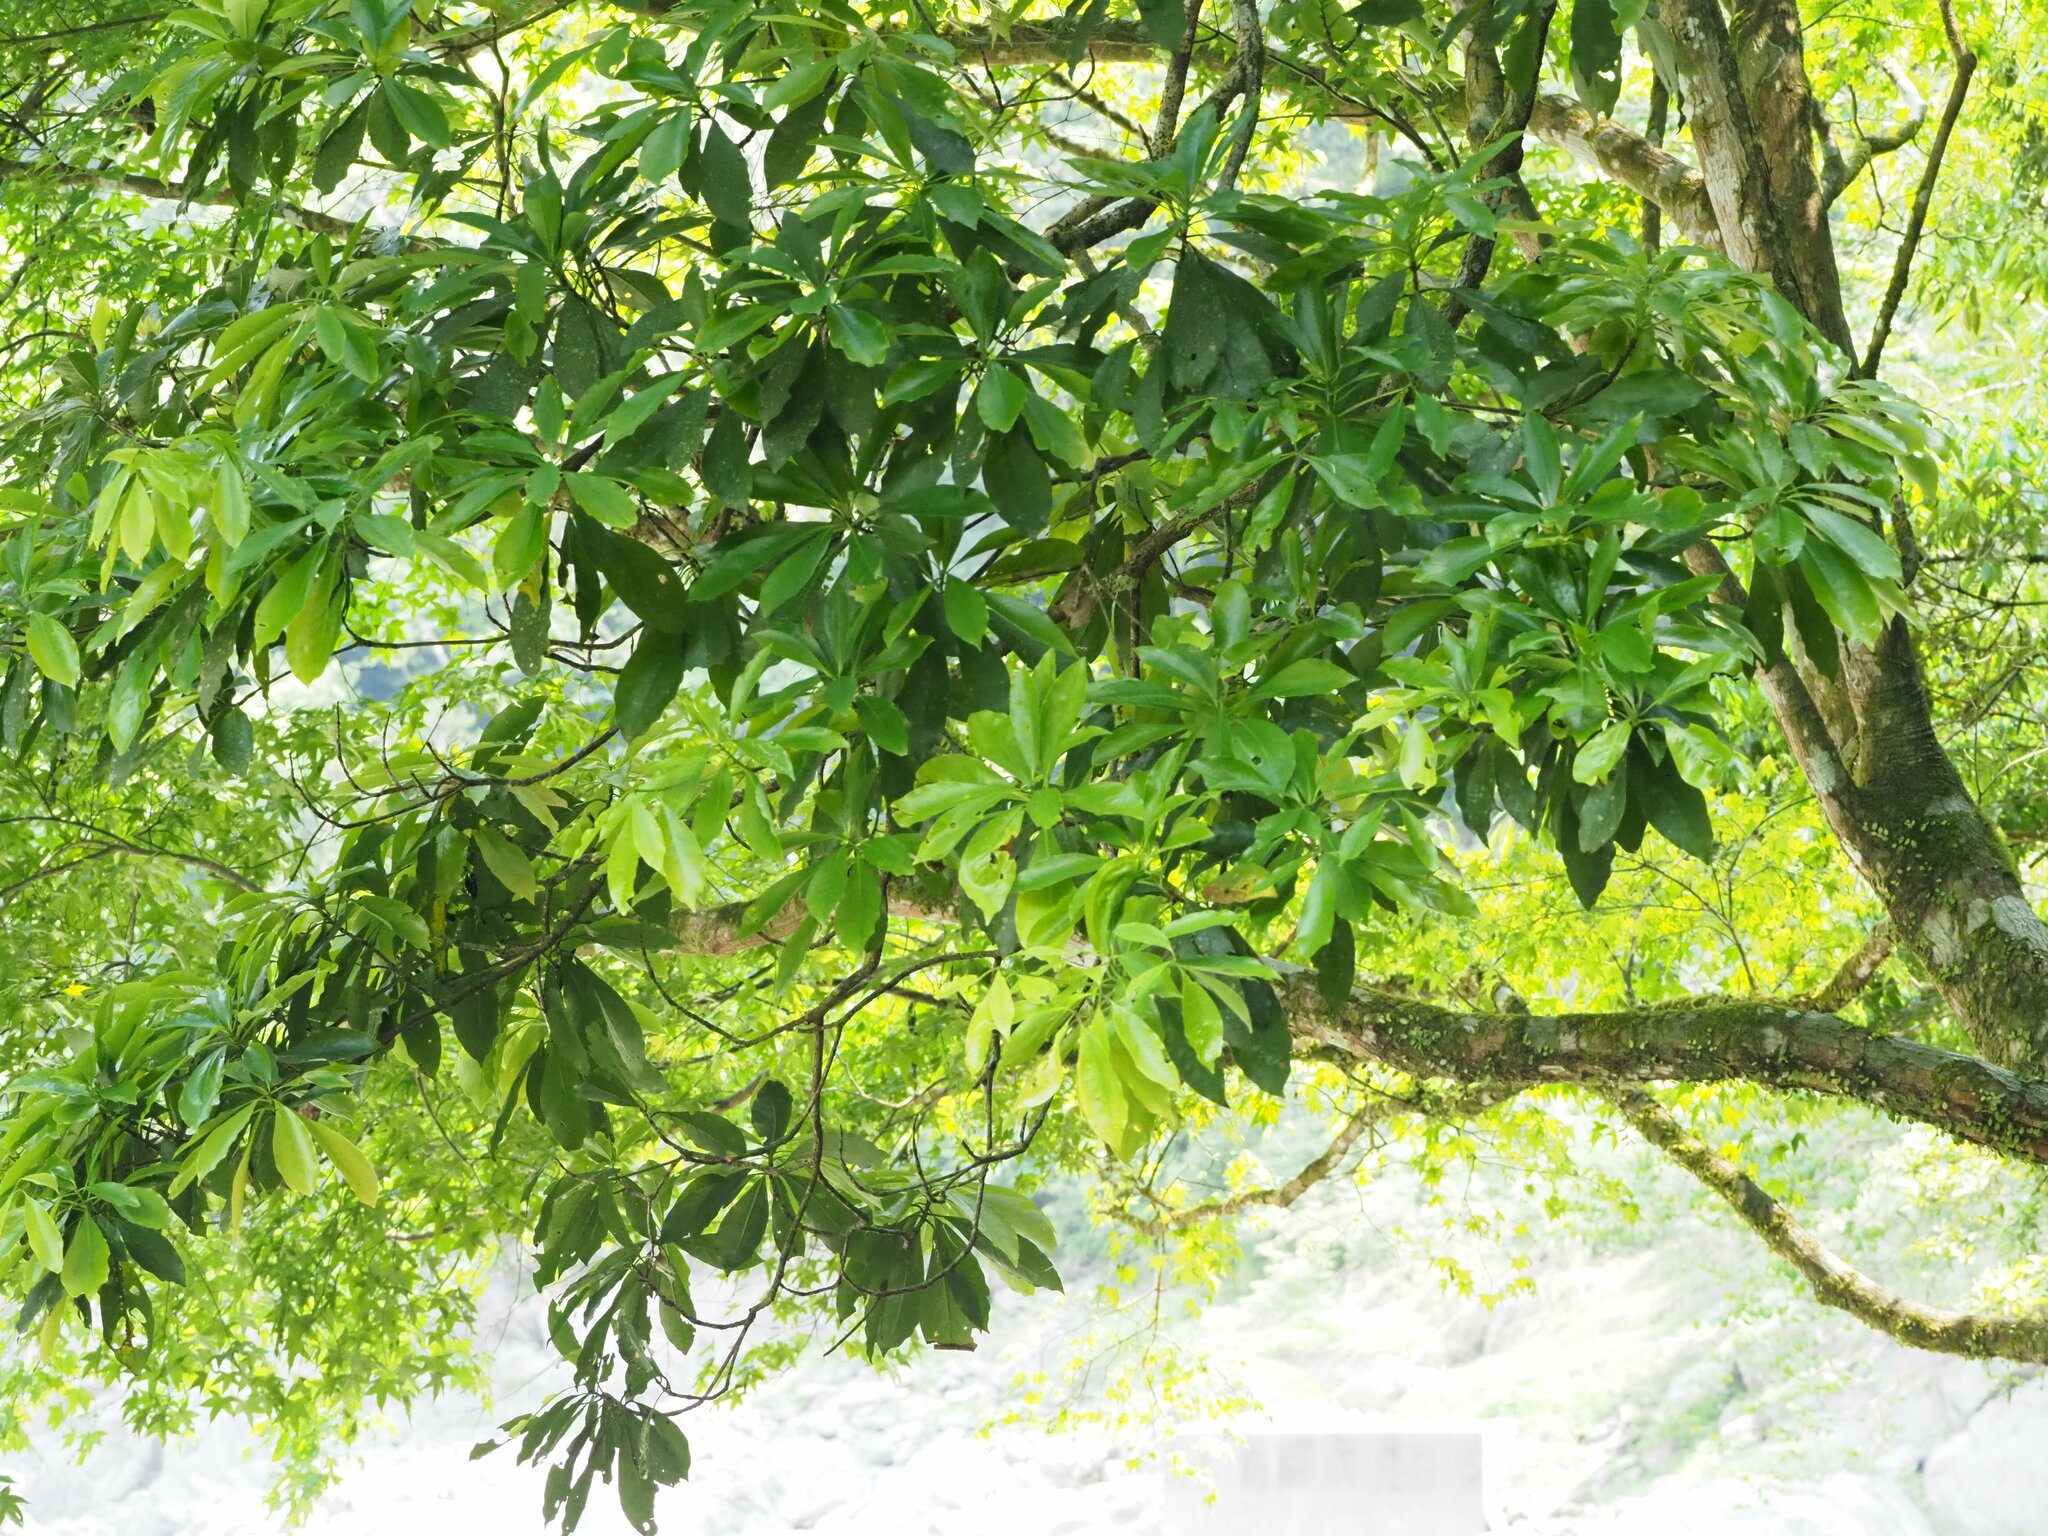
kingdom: Plantae
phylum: Tracheophyta
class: Magnoliopsida
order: Laurales
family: Lauraceae
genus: Machilus
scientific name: Machilus japonica
